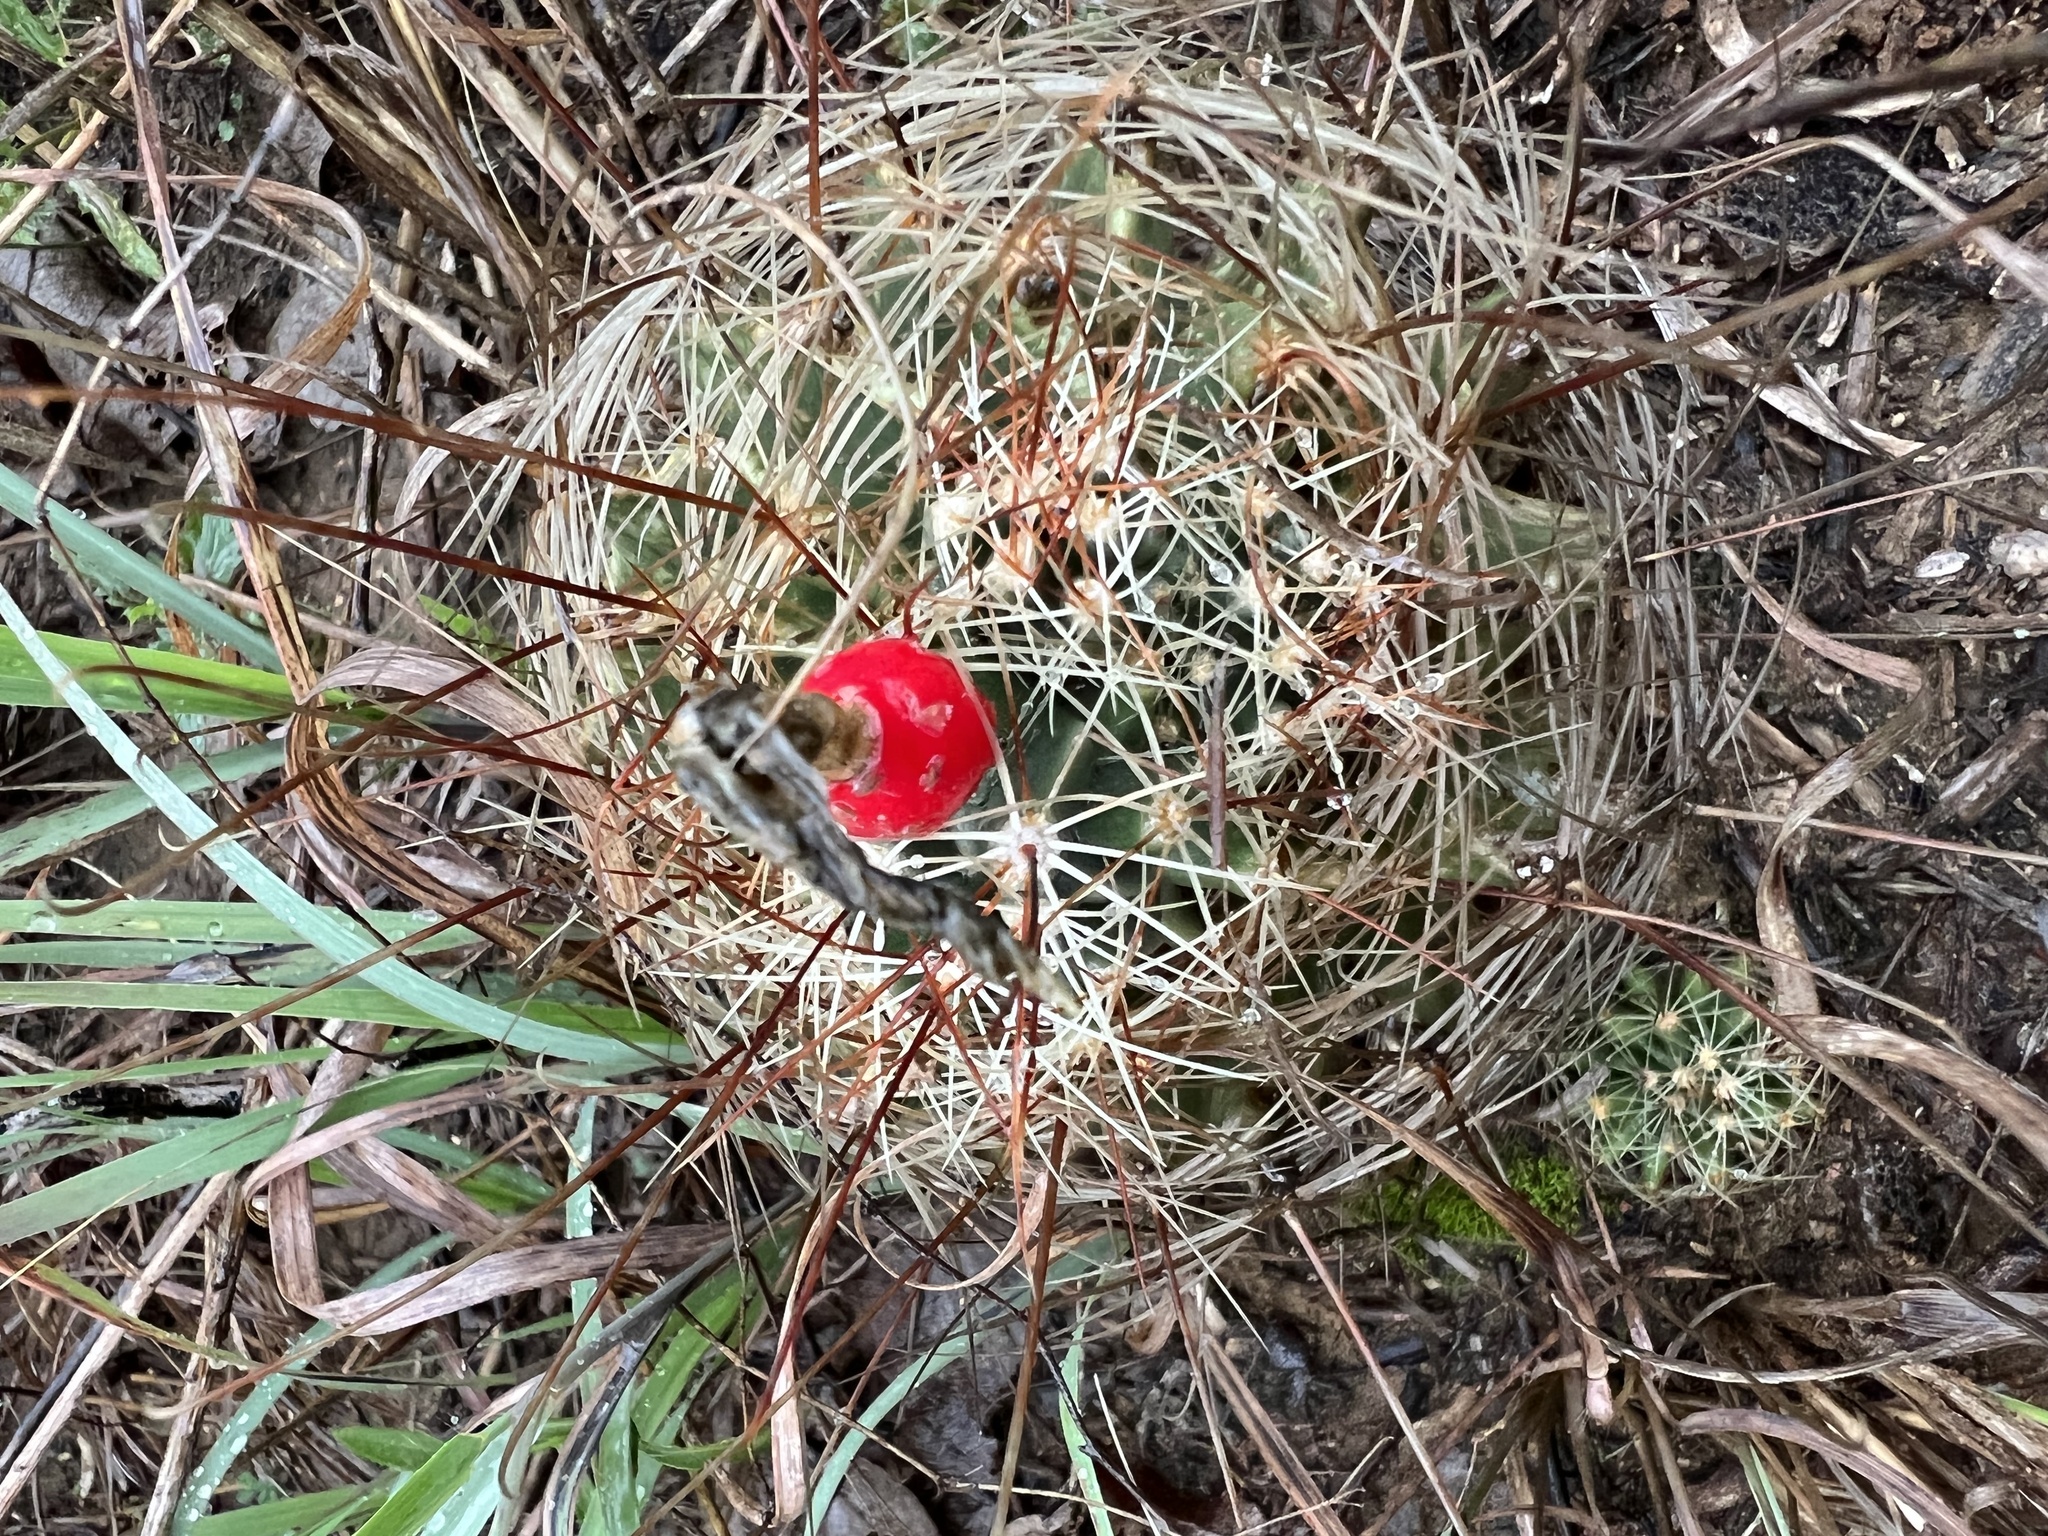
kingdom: Plantae
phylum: Tracheophyta
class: Magnoliopsida
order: Caryophyllales
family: Cactaceae
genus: Thelocactus
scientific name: Thelocactus setispinus
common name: Miniature barrel cactus
